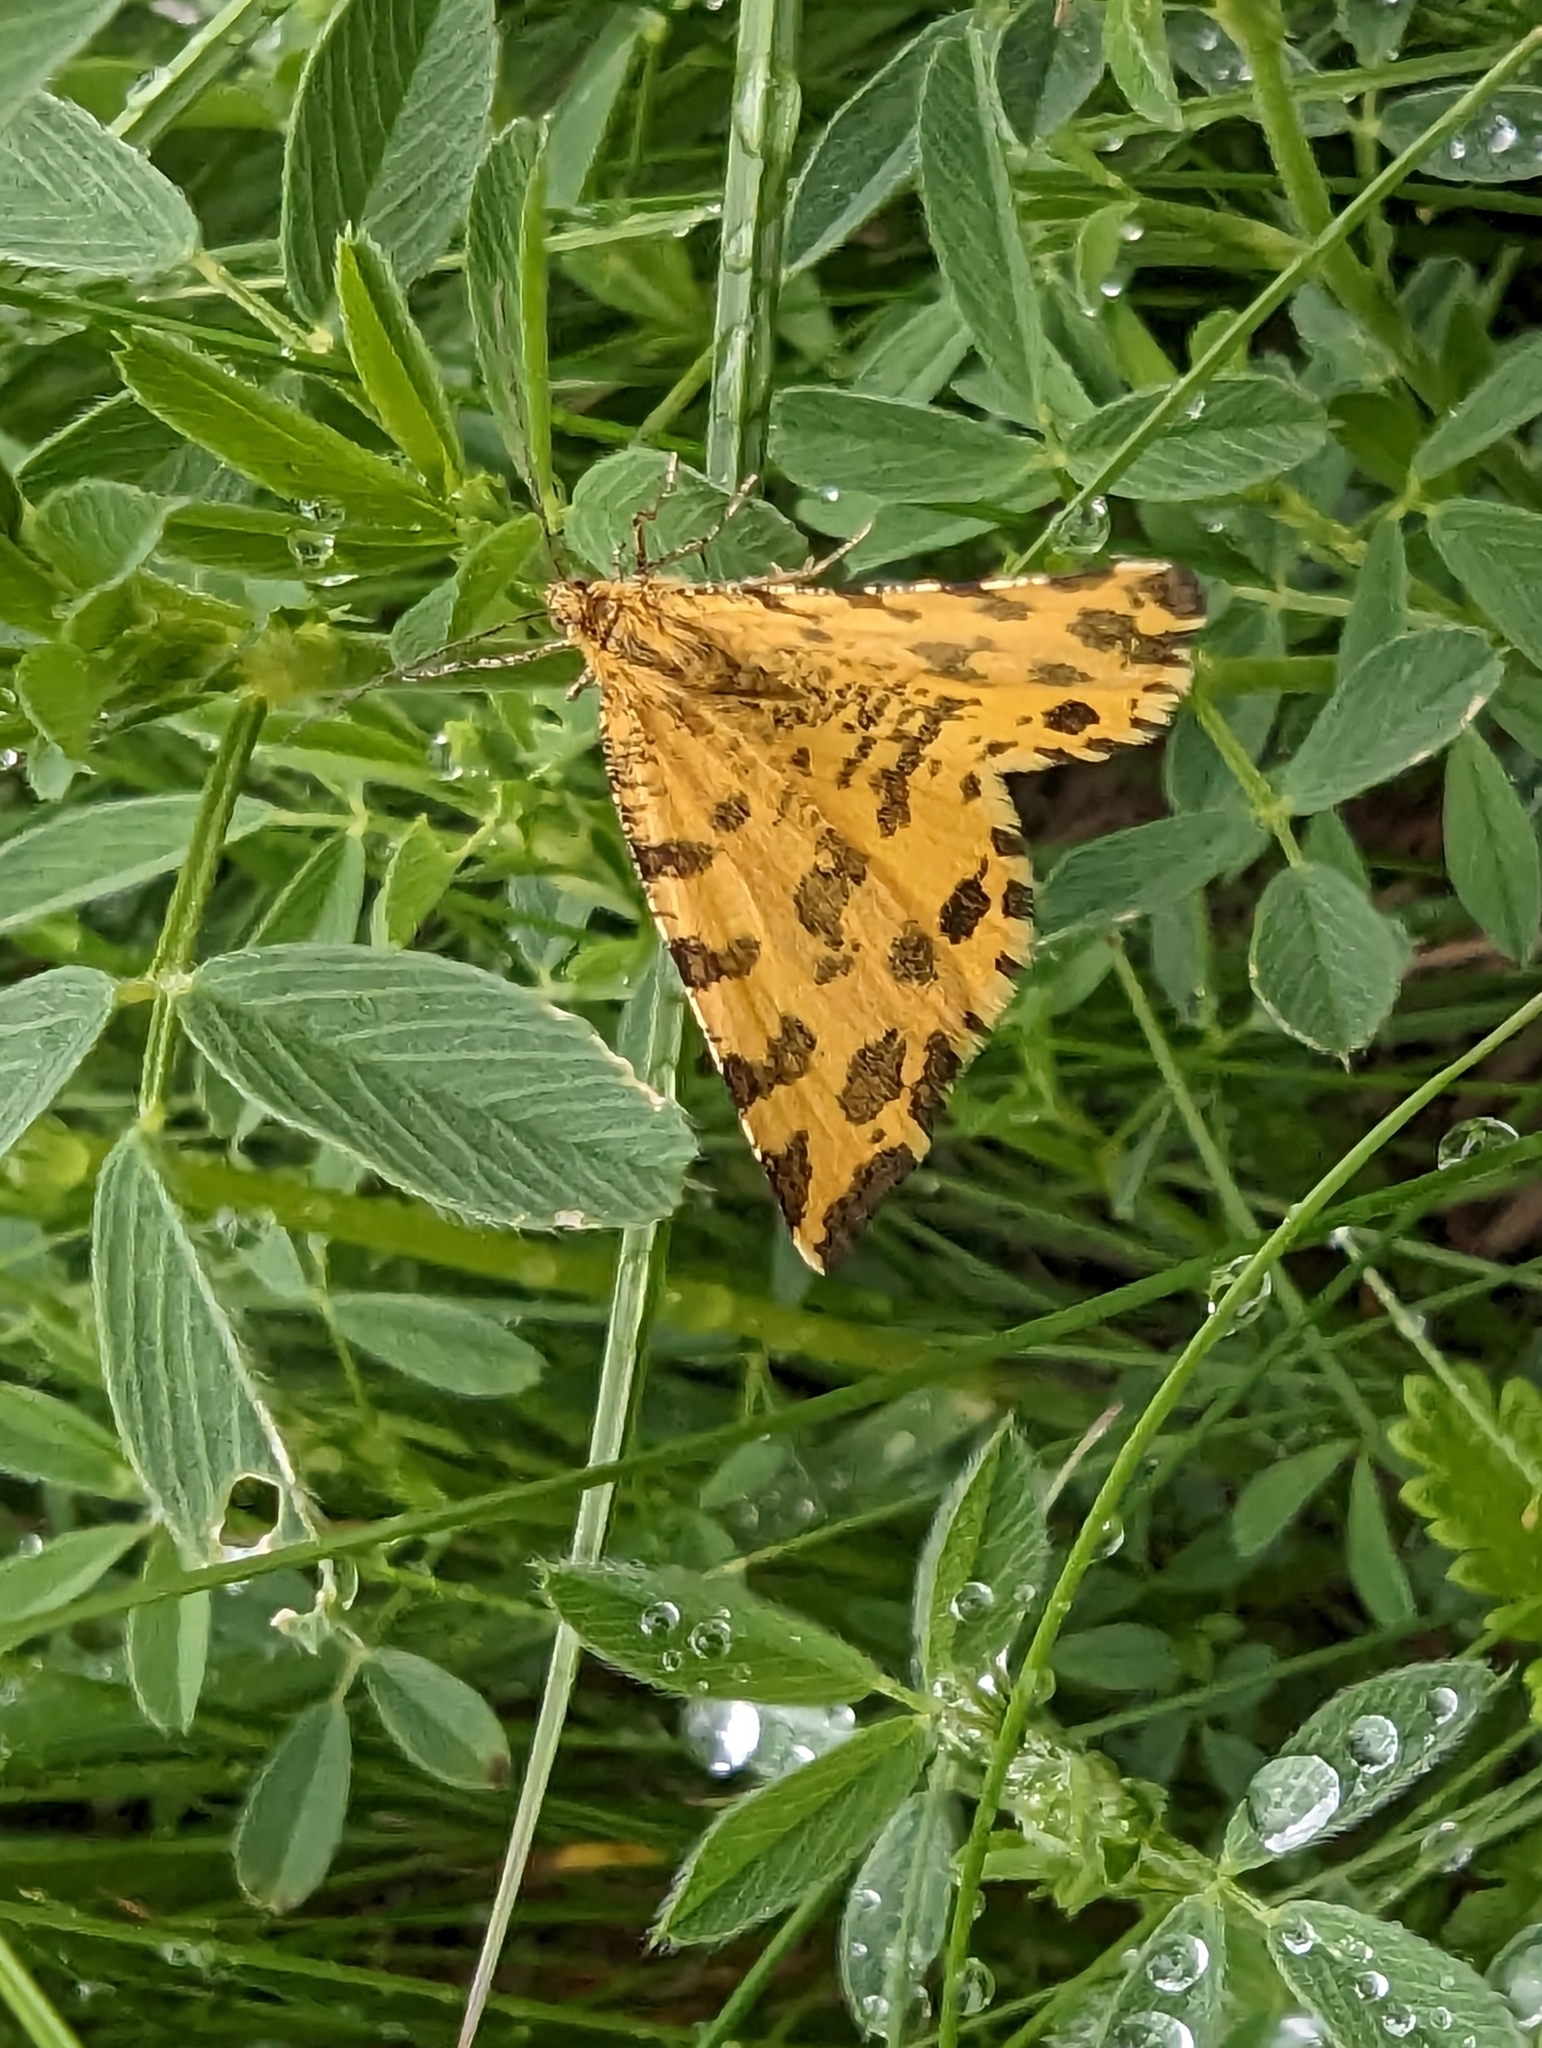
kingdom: Animalia
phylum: Arthropoda
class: Insecta
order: Lepidoptera
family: Geometridae
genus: Pseudopanthera
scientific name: Pseudopanthera macularia
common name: Speckled yellow
